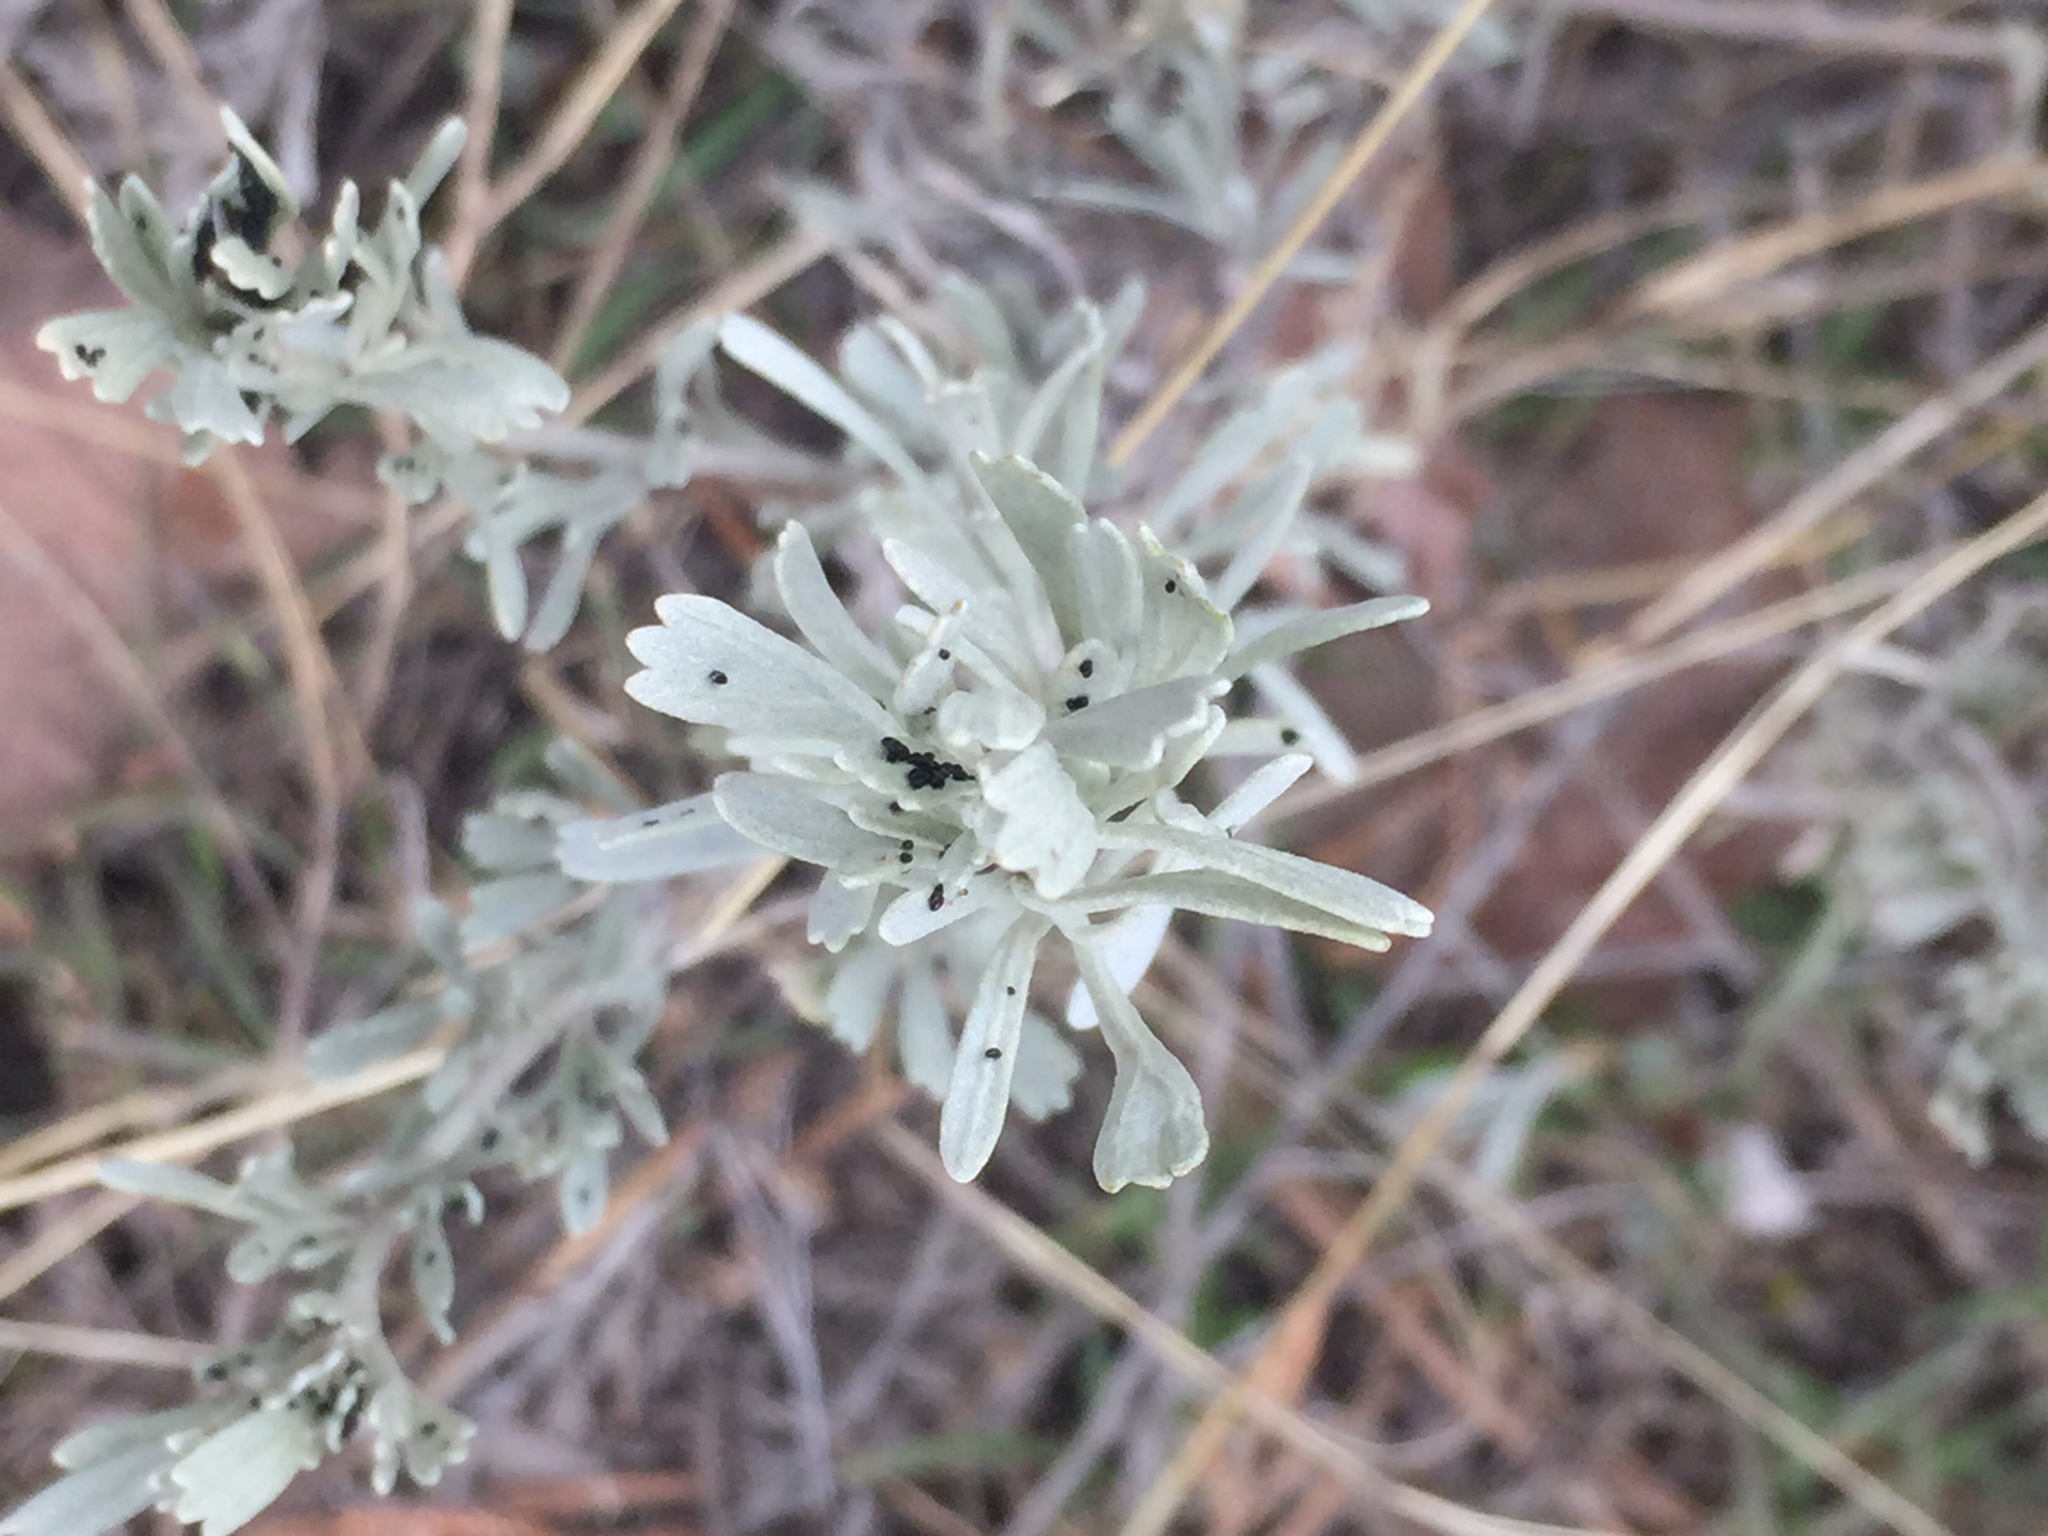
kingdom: Plantae
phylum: Tracheophyta
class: Magnoliopsida
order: Asterales
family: Asteraceae
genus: Artemisia
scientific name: Artemisia tridentata
